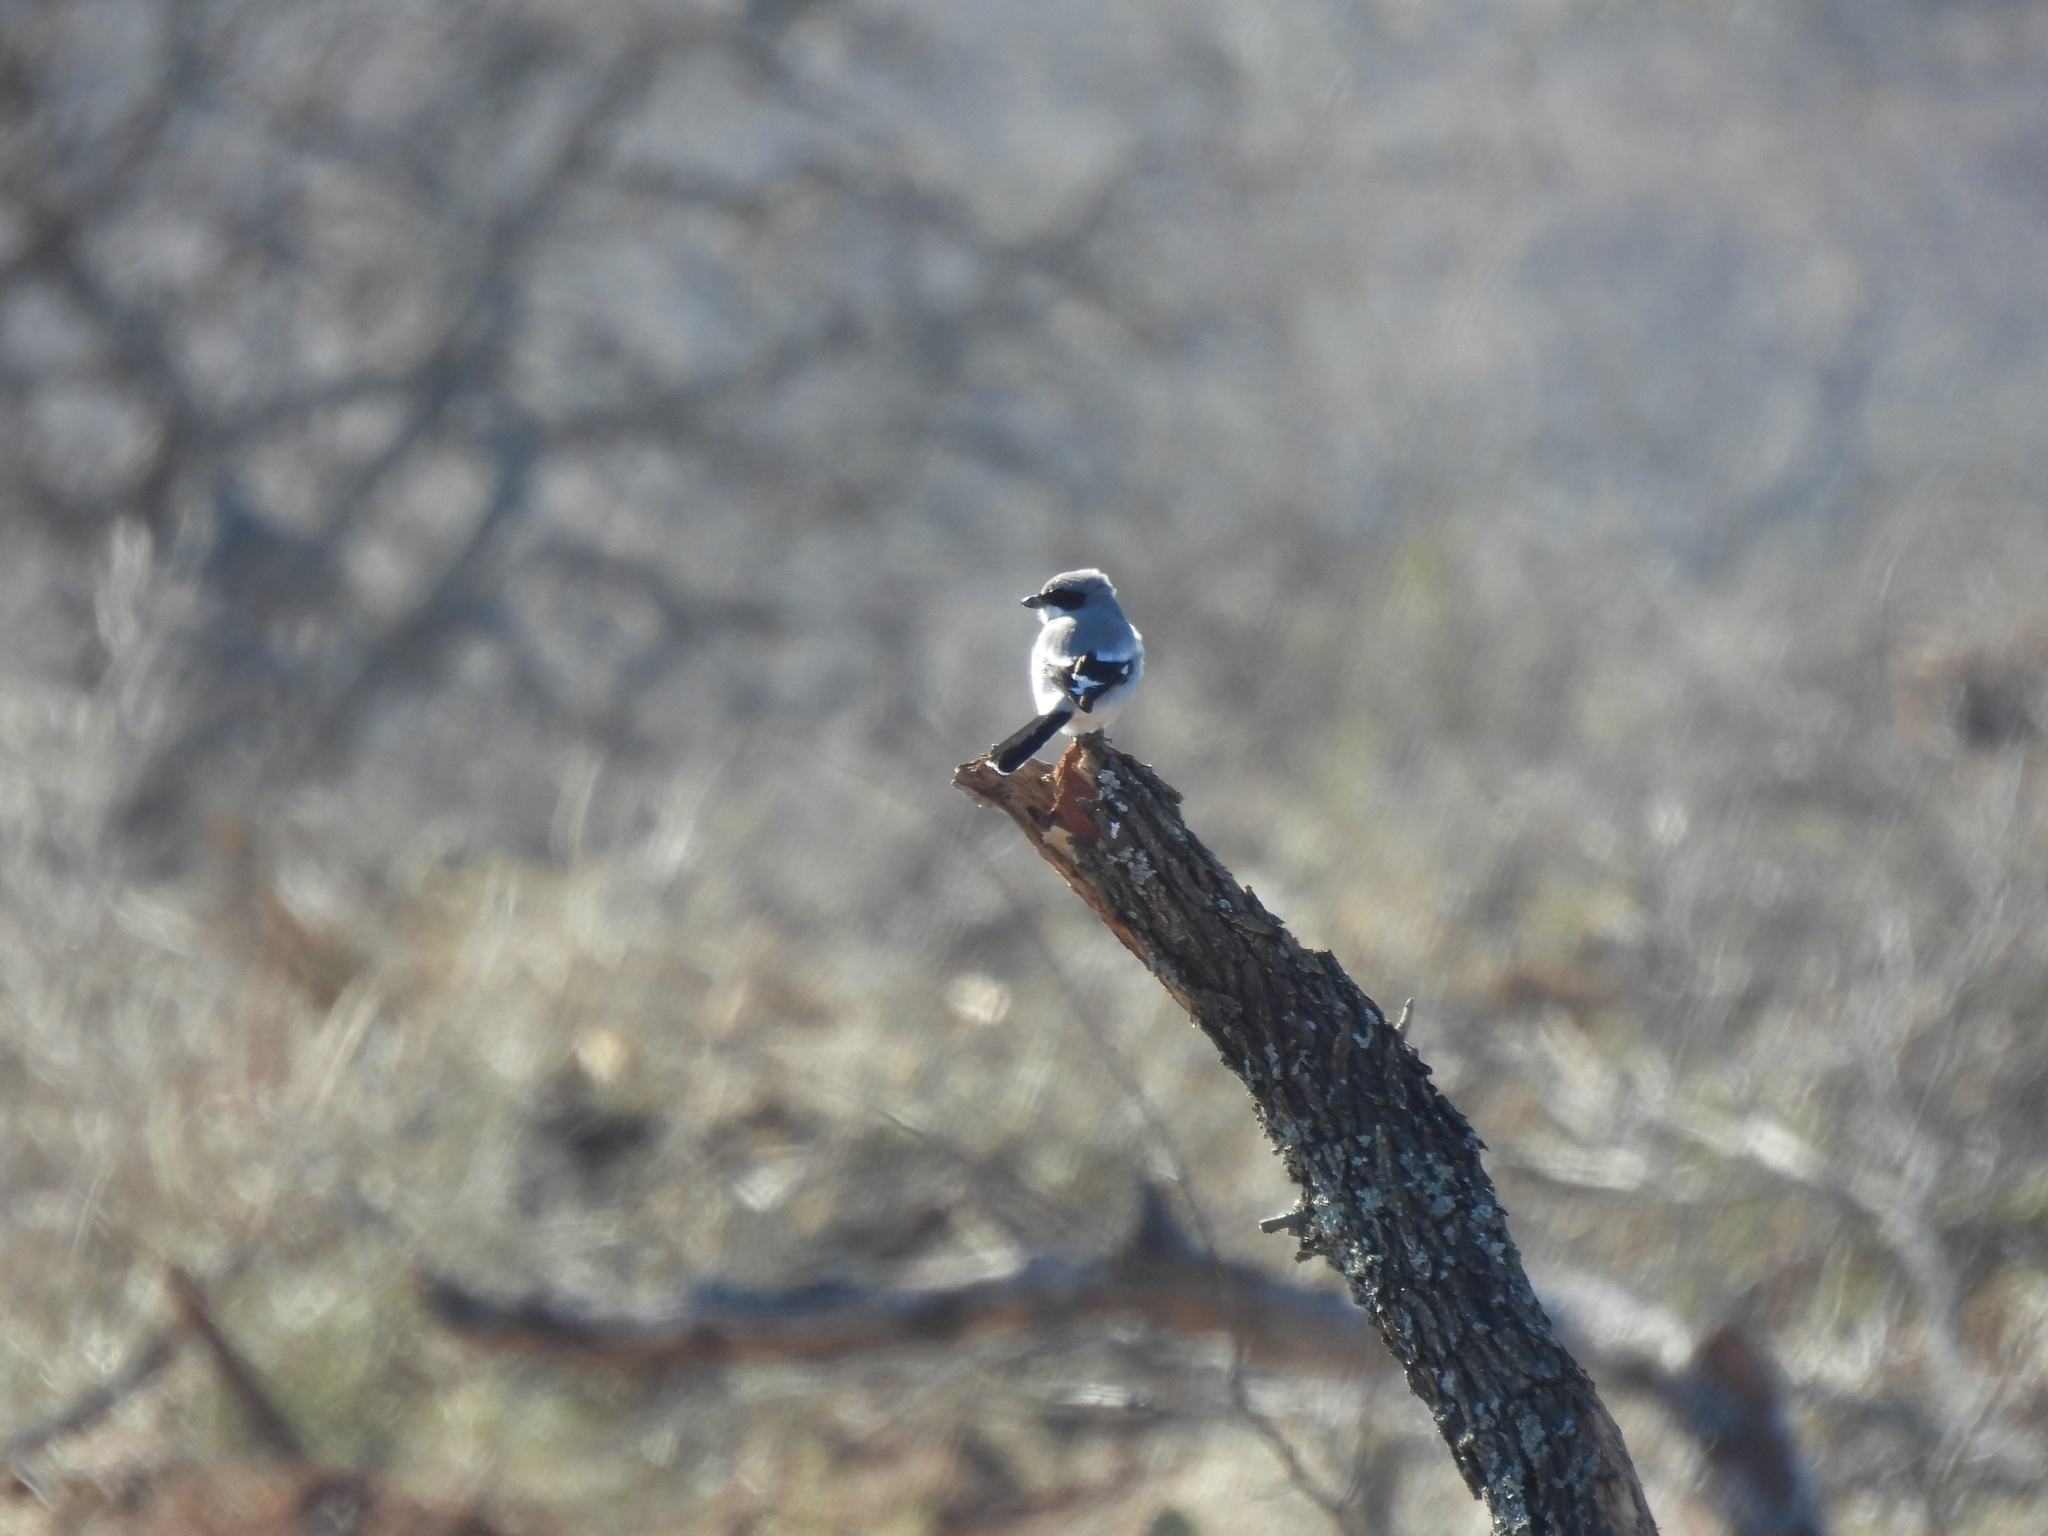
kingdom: Animalia
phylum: Chordata
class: Aves
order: Passeriformes
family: Laniidae
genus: Lanius
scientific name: Lanius ludovicianus
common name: Loggerhead shrike
